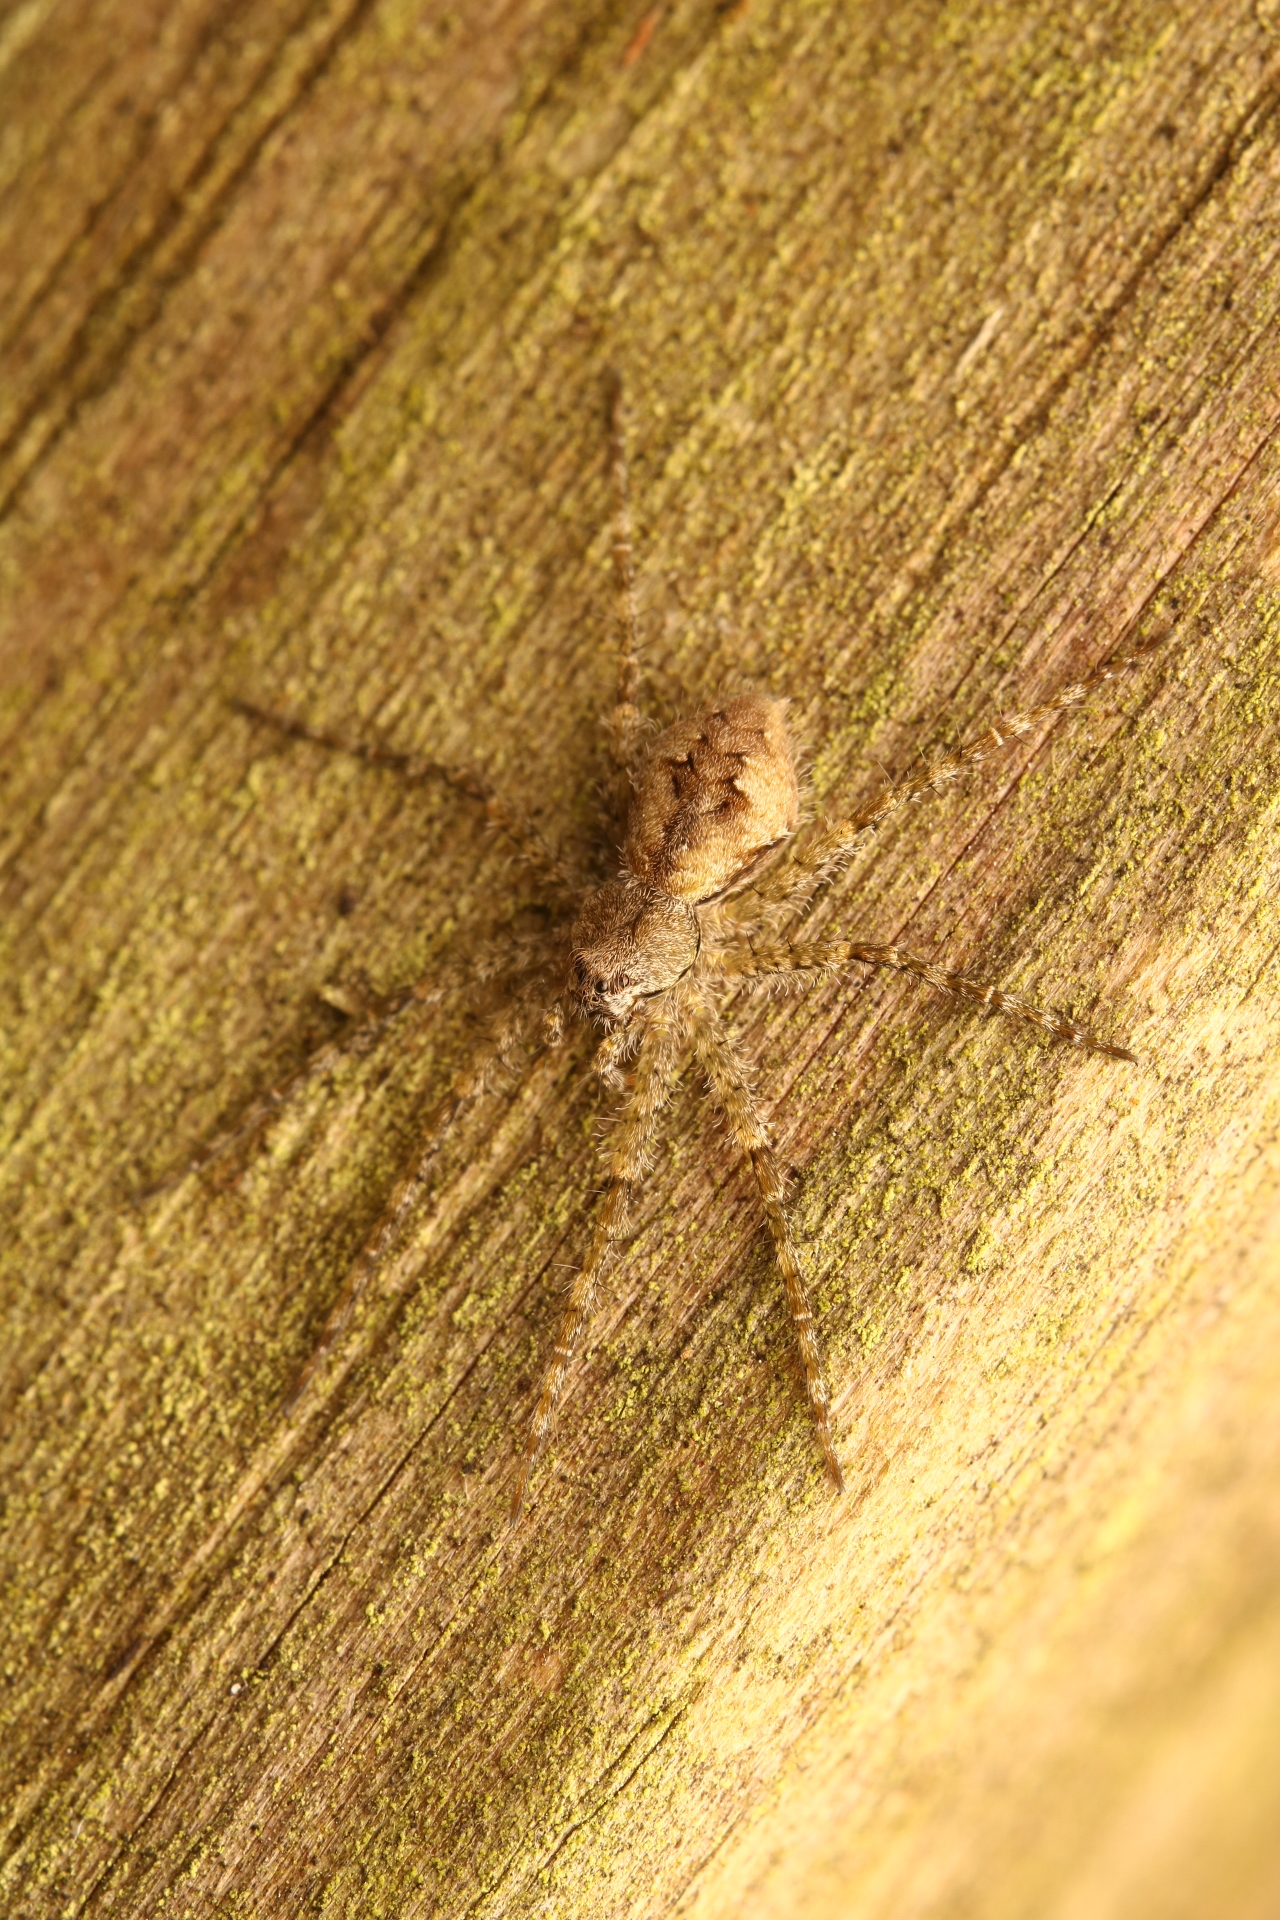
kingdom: Animalia
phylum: Arthropoda
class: Arachnida
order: Araneae
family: Pisauridae
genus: Dolomedes
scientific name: Dolomedes albineus
